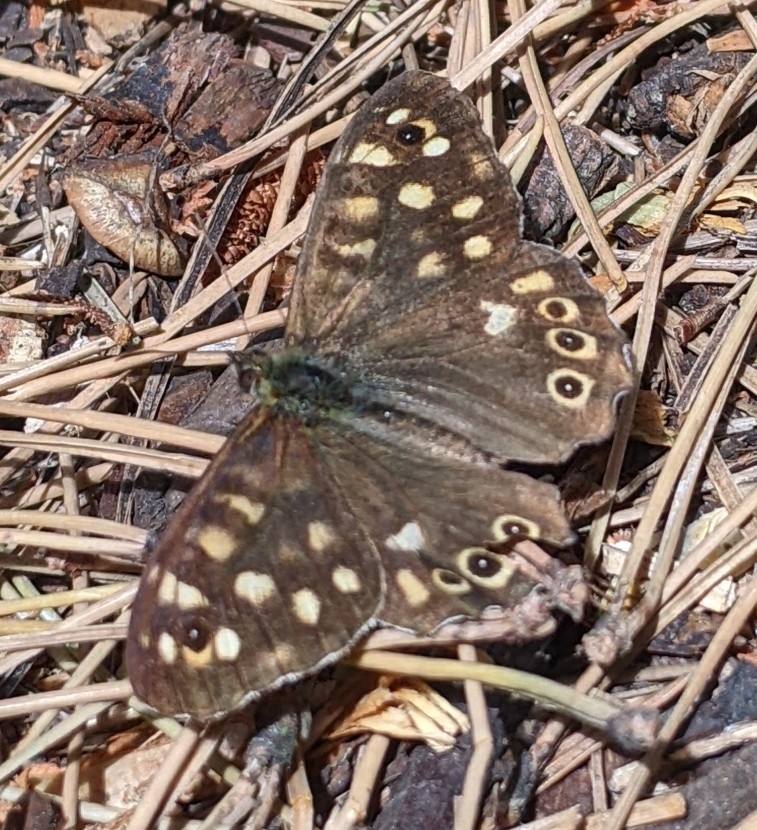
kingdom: Animalia
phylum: Arthropoda
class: Insecta
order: Lepidoptera
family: Nymphalidae
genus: Pararge
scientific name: Pararge aegeria
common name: Speckled wood
